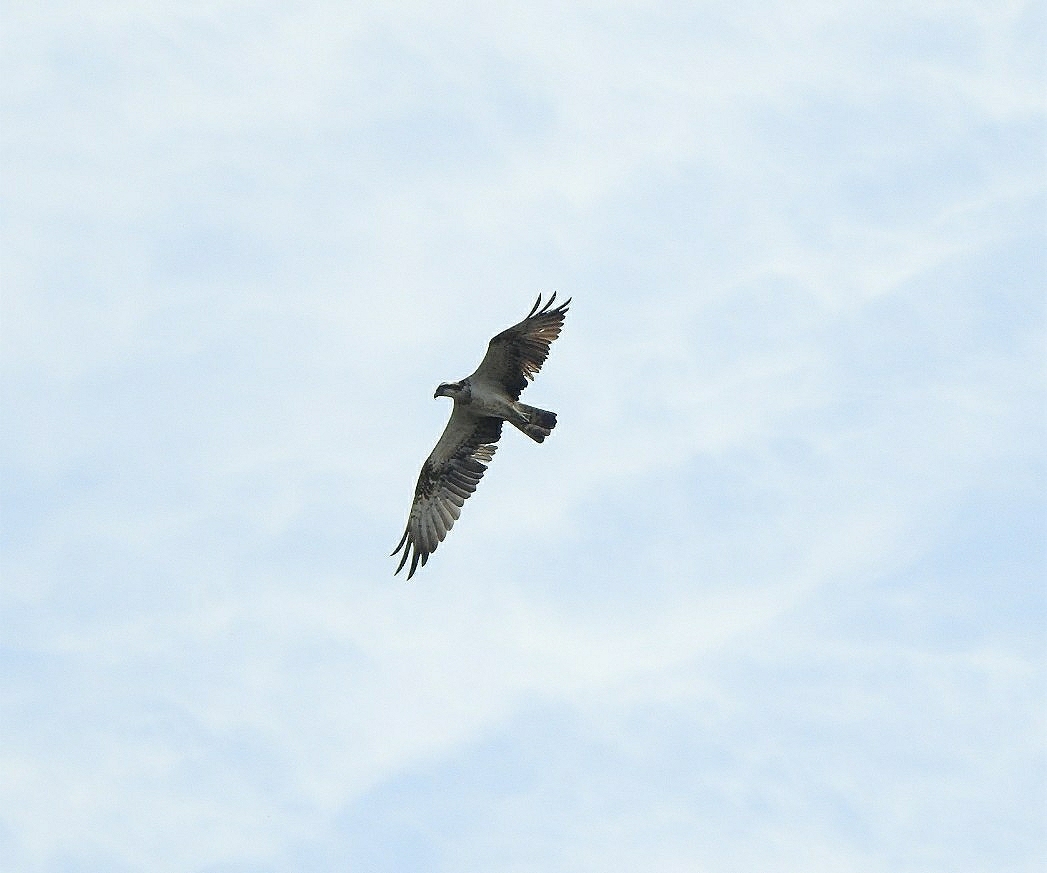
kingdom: Animalia
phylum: Chordata
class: Aves
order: Accipitriformes
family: Pandionidae
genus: Pandion
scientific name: Pandion haliaetus
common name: Osprey
